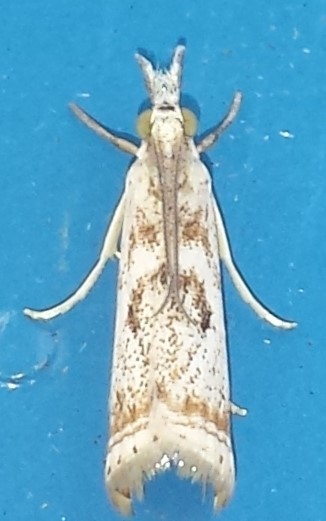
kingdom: Animalia
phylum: Arthropoda
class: Insecta
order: Lepidoptera
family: Crambidae
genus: Microcrambus
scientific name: Microcrambus elegans
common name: Elegant grass-veneer
